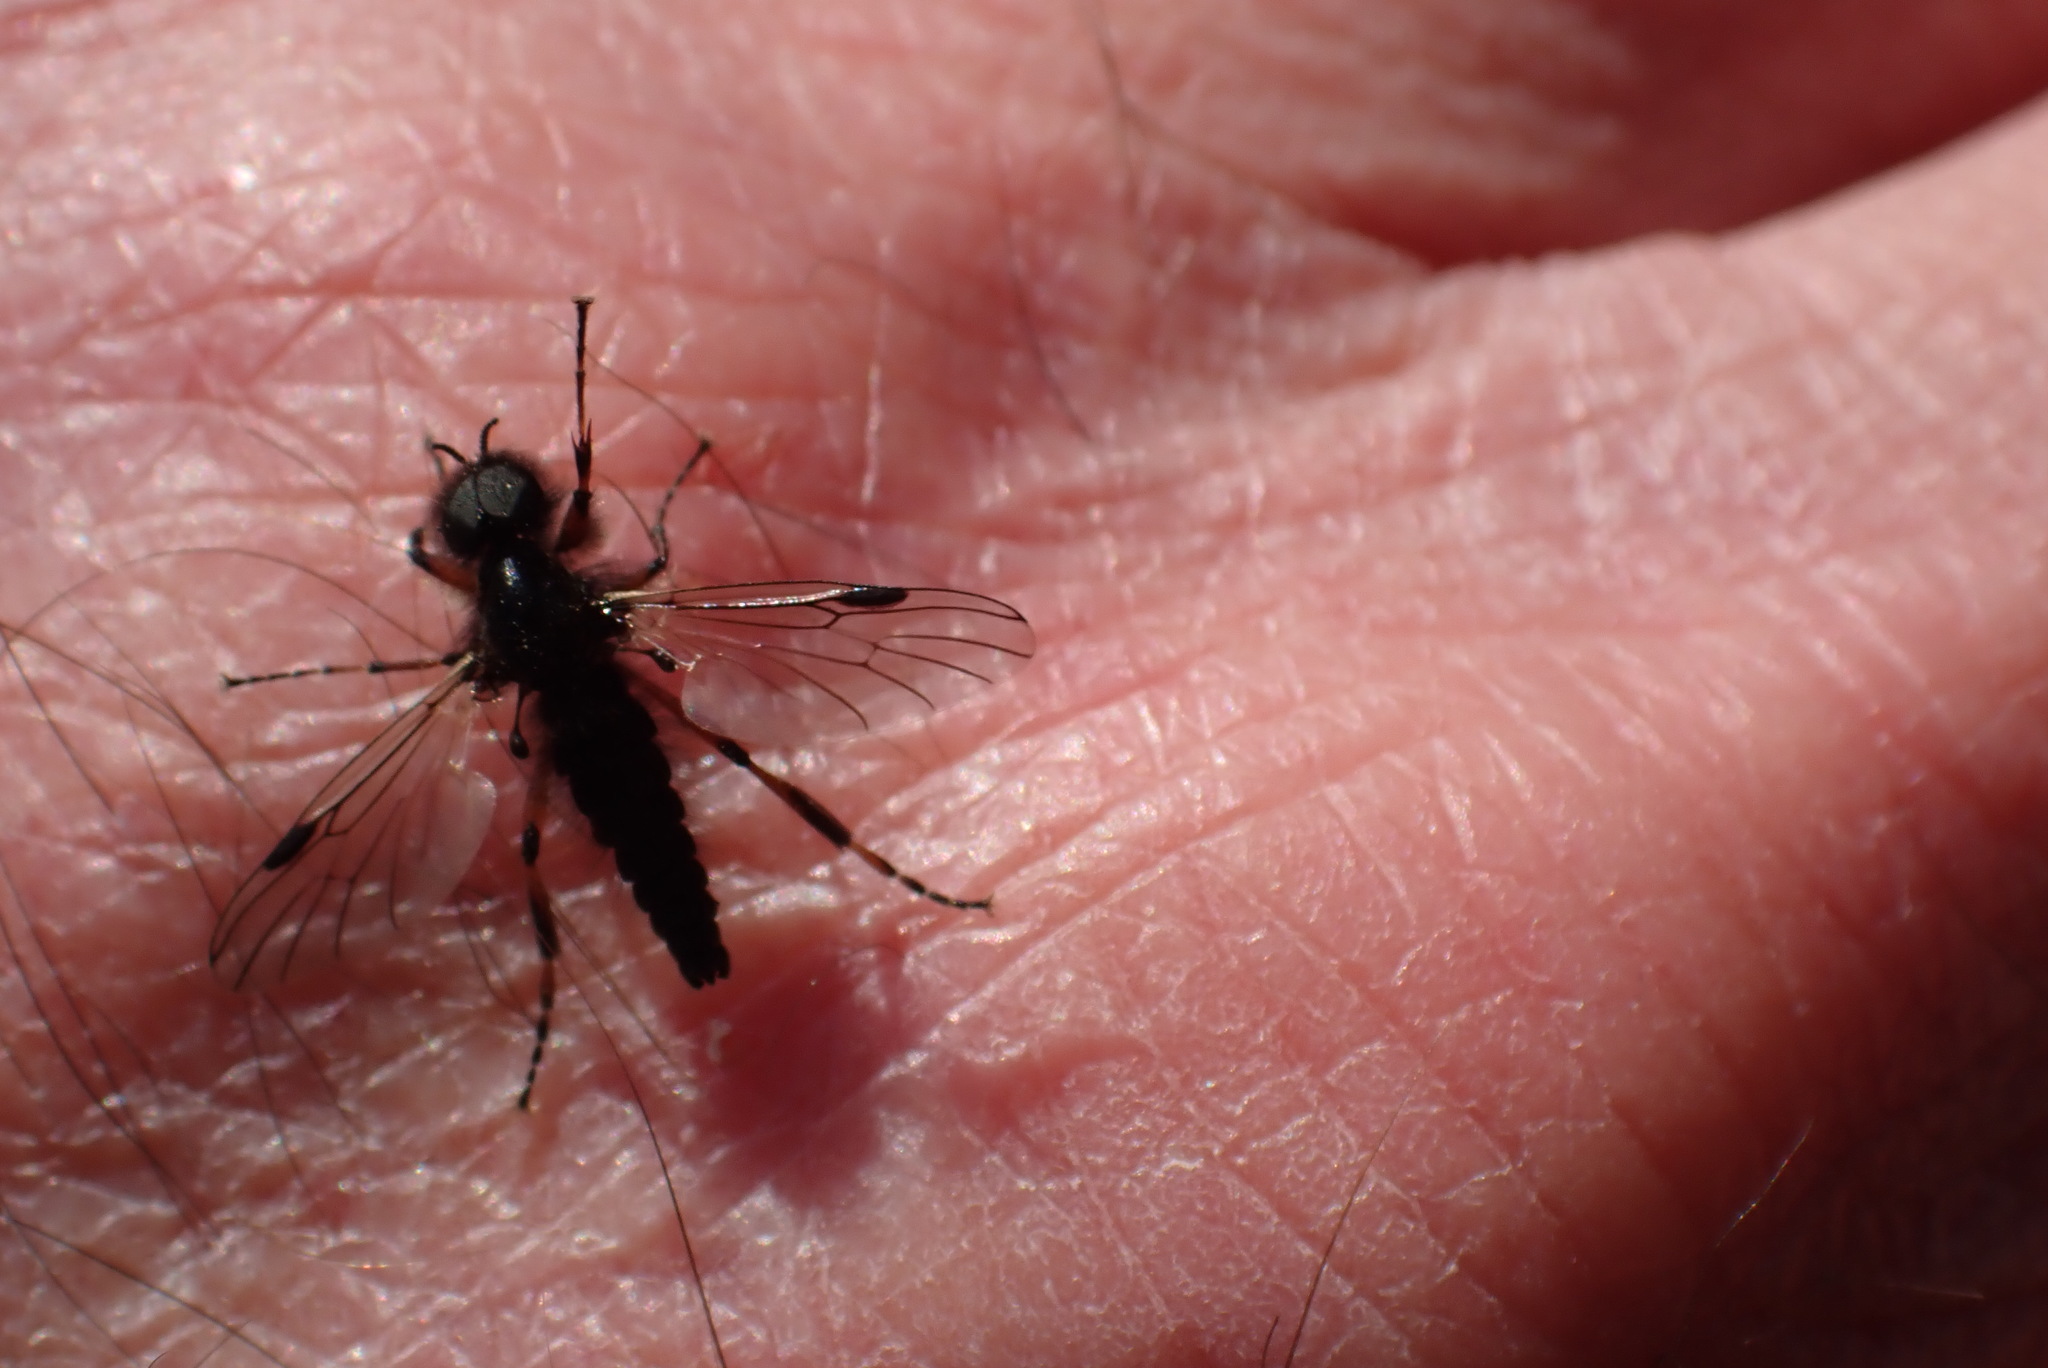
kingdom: Animalia
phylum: Arthropoda
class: Insecta
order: Diptera
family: Bibionidae
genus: Bibio
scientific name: Bibio xanthopus
